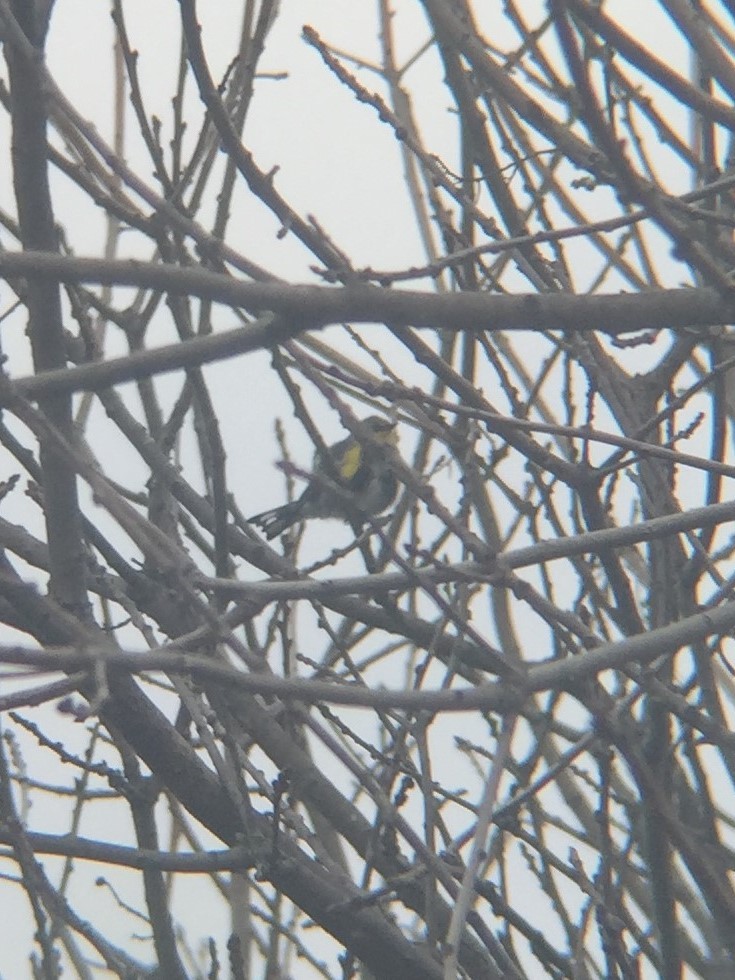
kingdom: Animalia
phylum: Chordata
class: Aves
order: Passeriformes
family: Parulidae
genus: Setophaga
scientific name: Setophaga coronata
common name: Myrtle warbler
